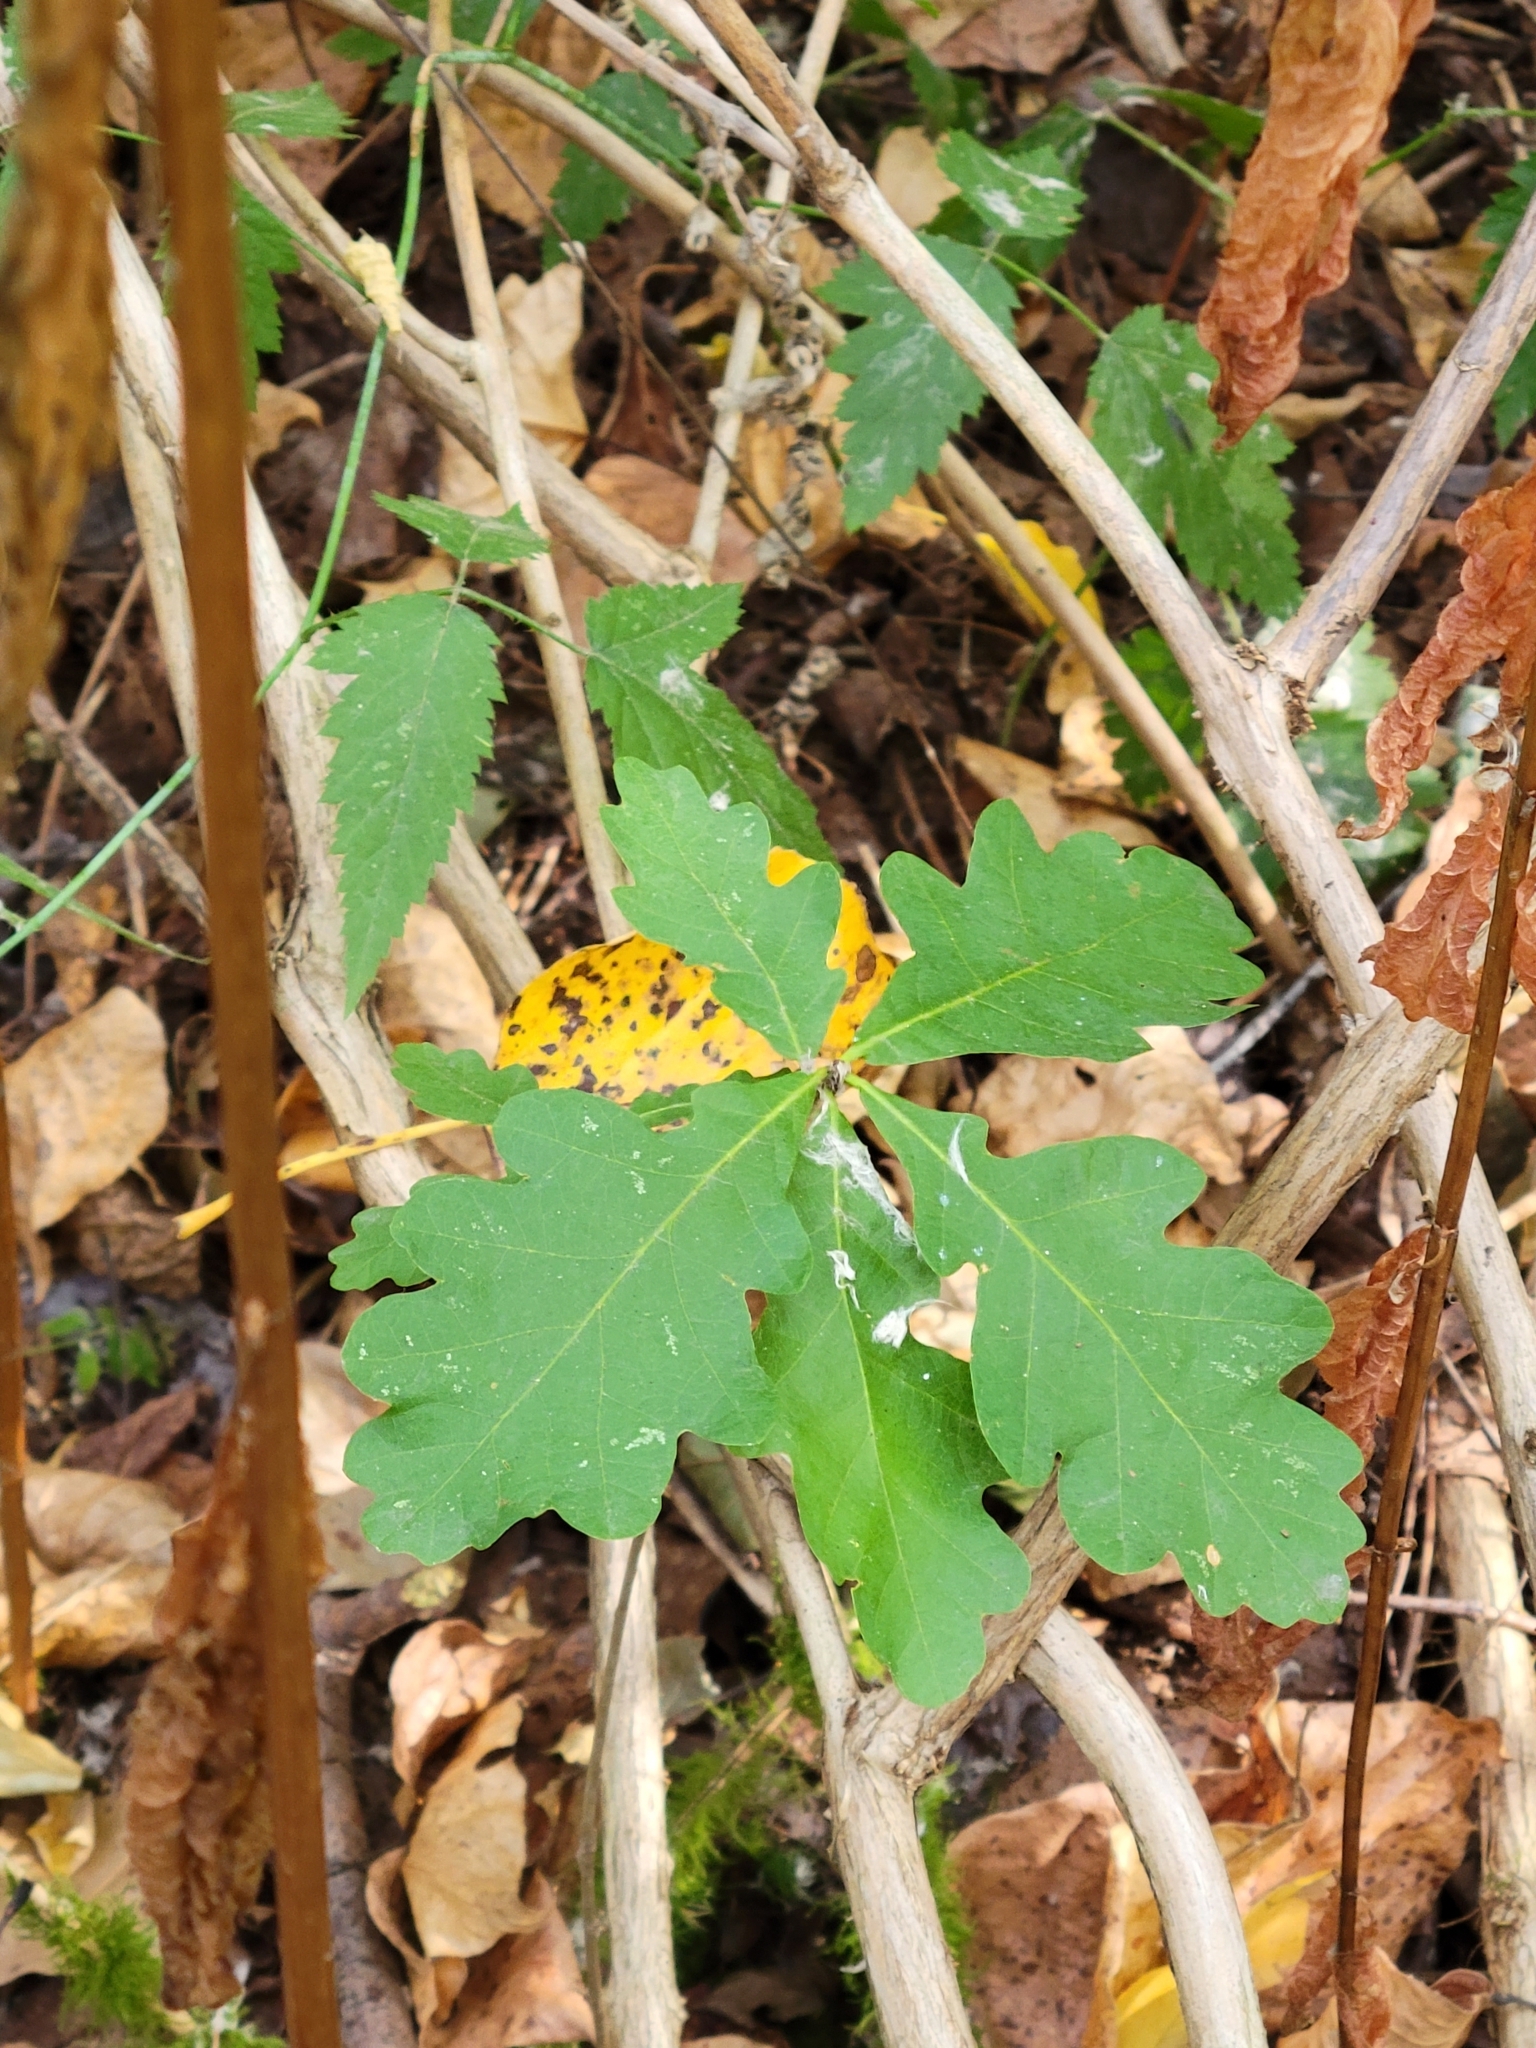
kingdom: Plantae
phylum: Tracheophyta
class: Magnoliopsida
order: Fagales
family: Fagaceae
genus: Quercus
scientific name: Quercus robur
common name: Pedunculate oak
